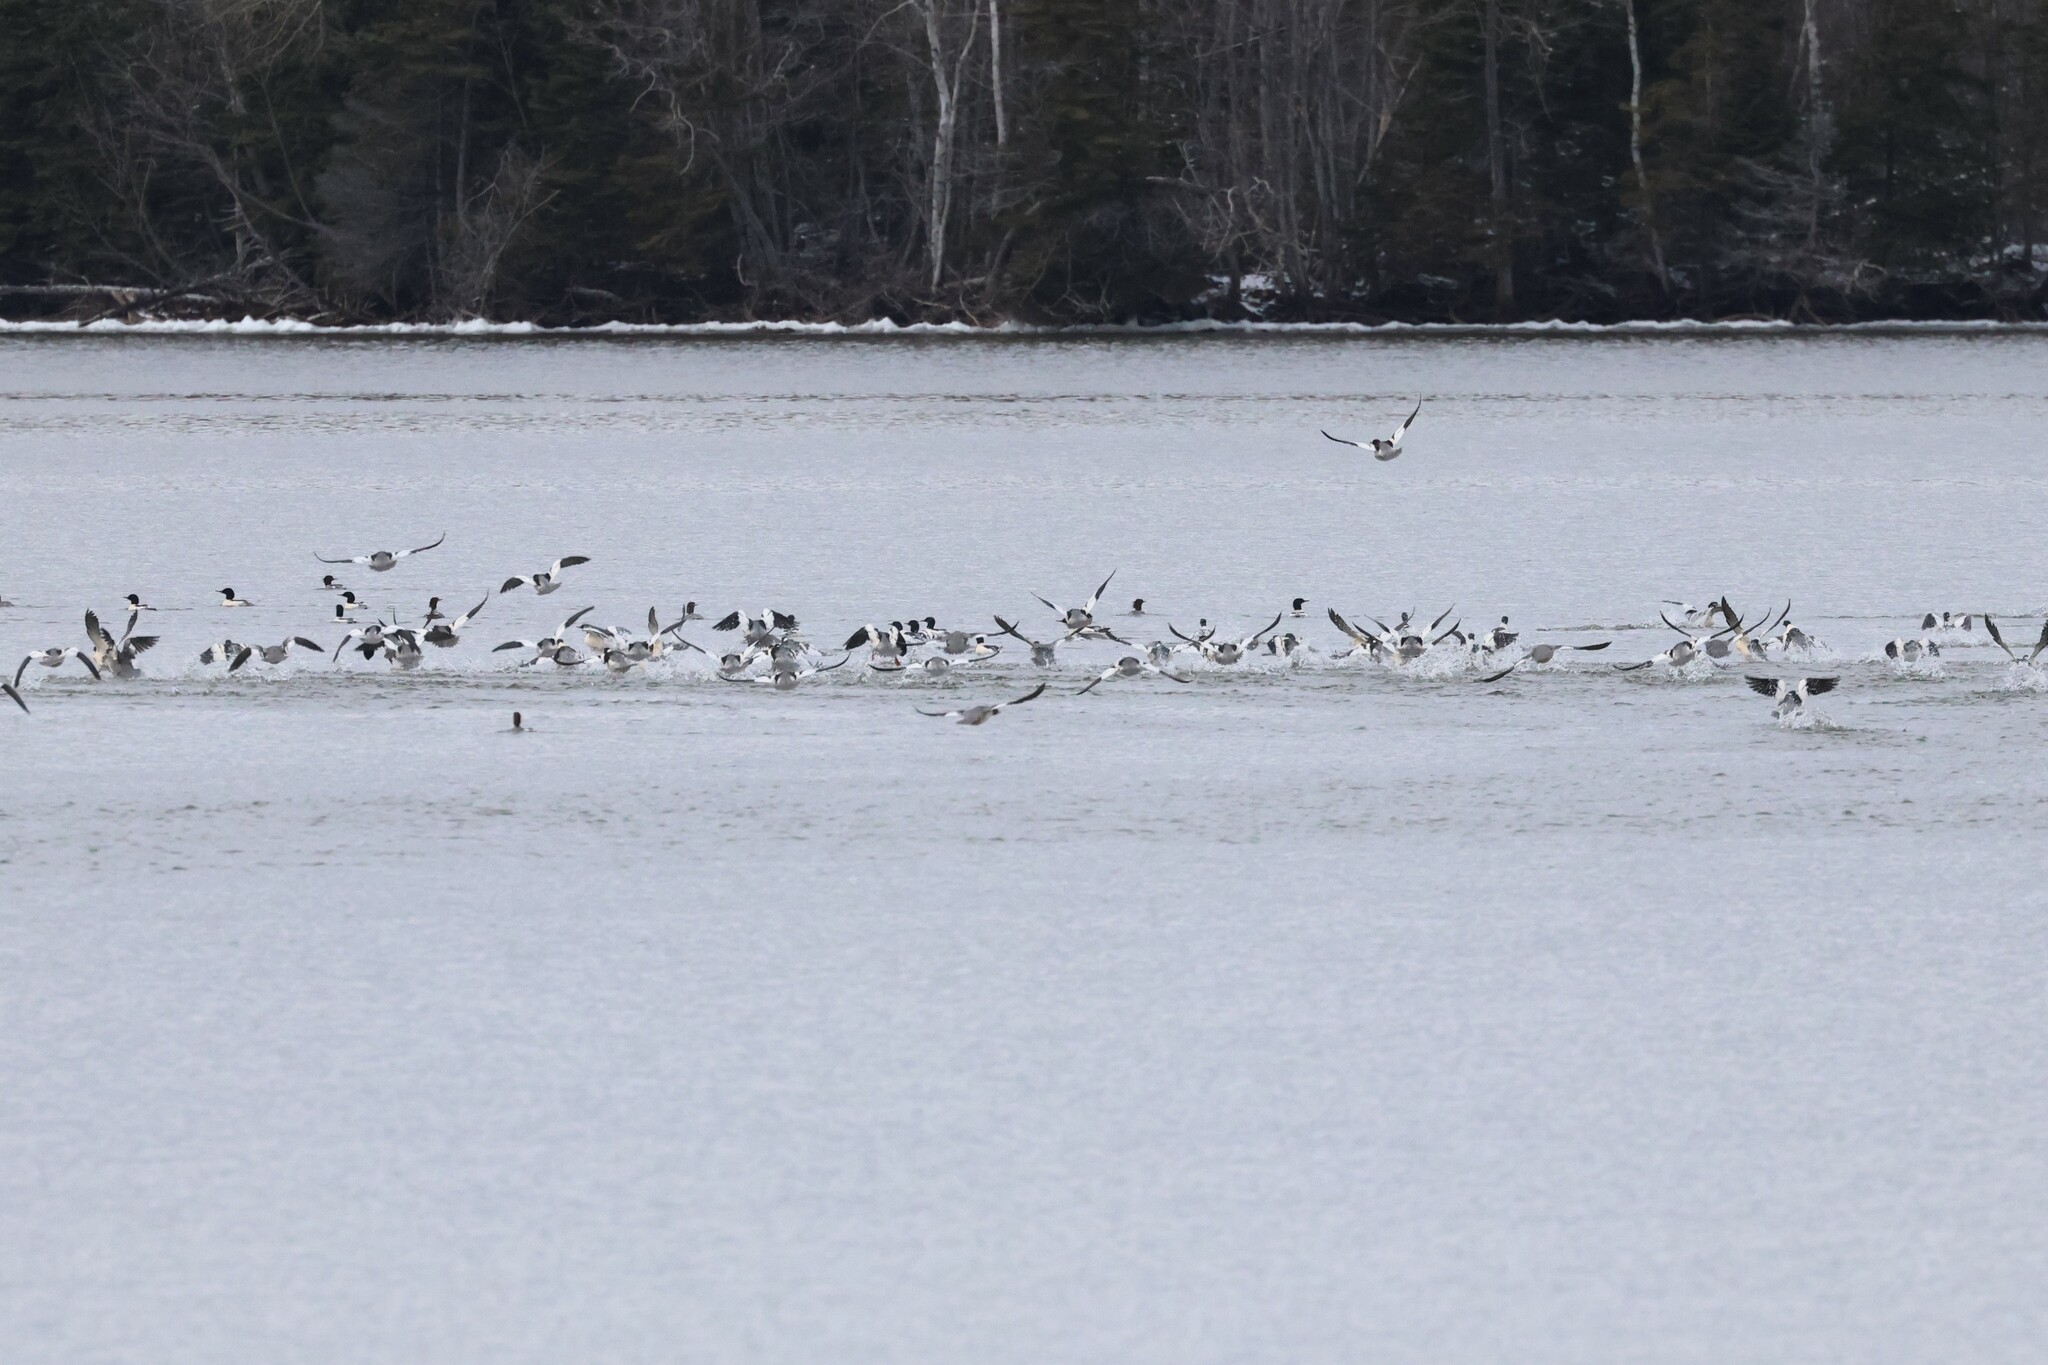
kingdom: Animalia
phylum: Chordata
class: Aves
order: Anseriformes
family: Anatidae
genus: Mergus
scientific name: Mergus merganser
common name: Common merganser
